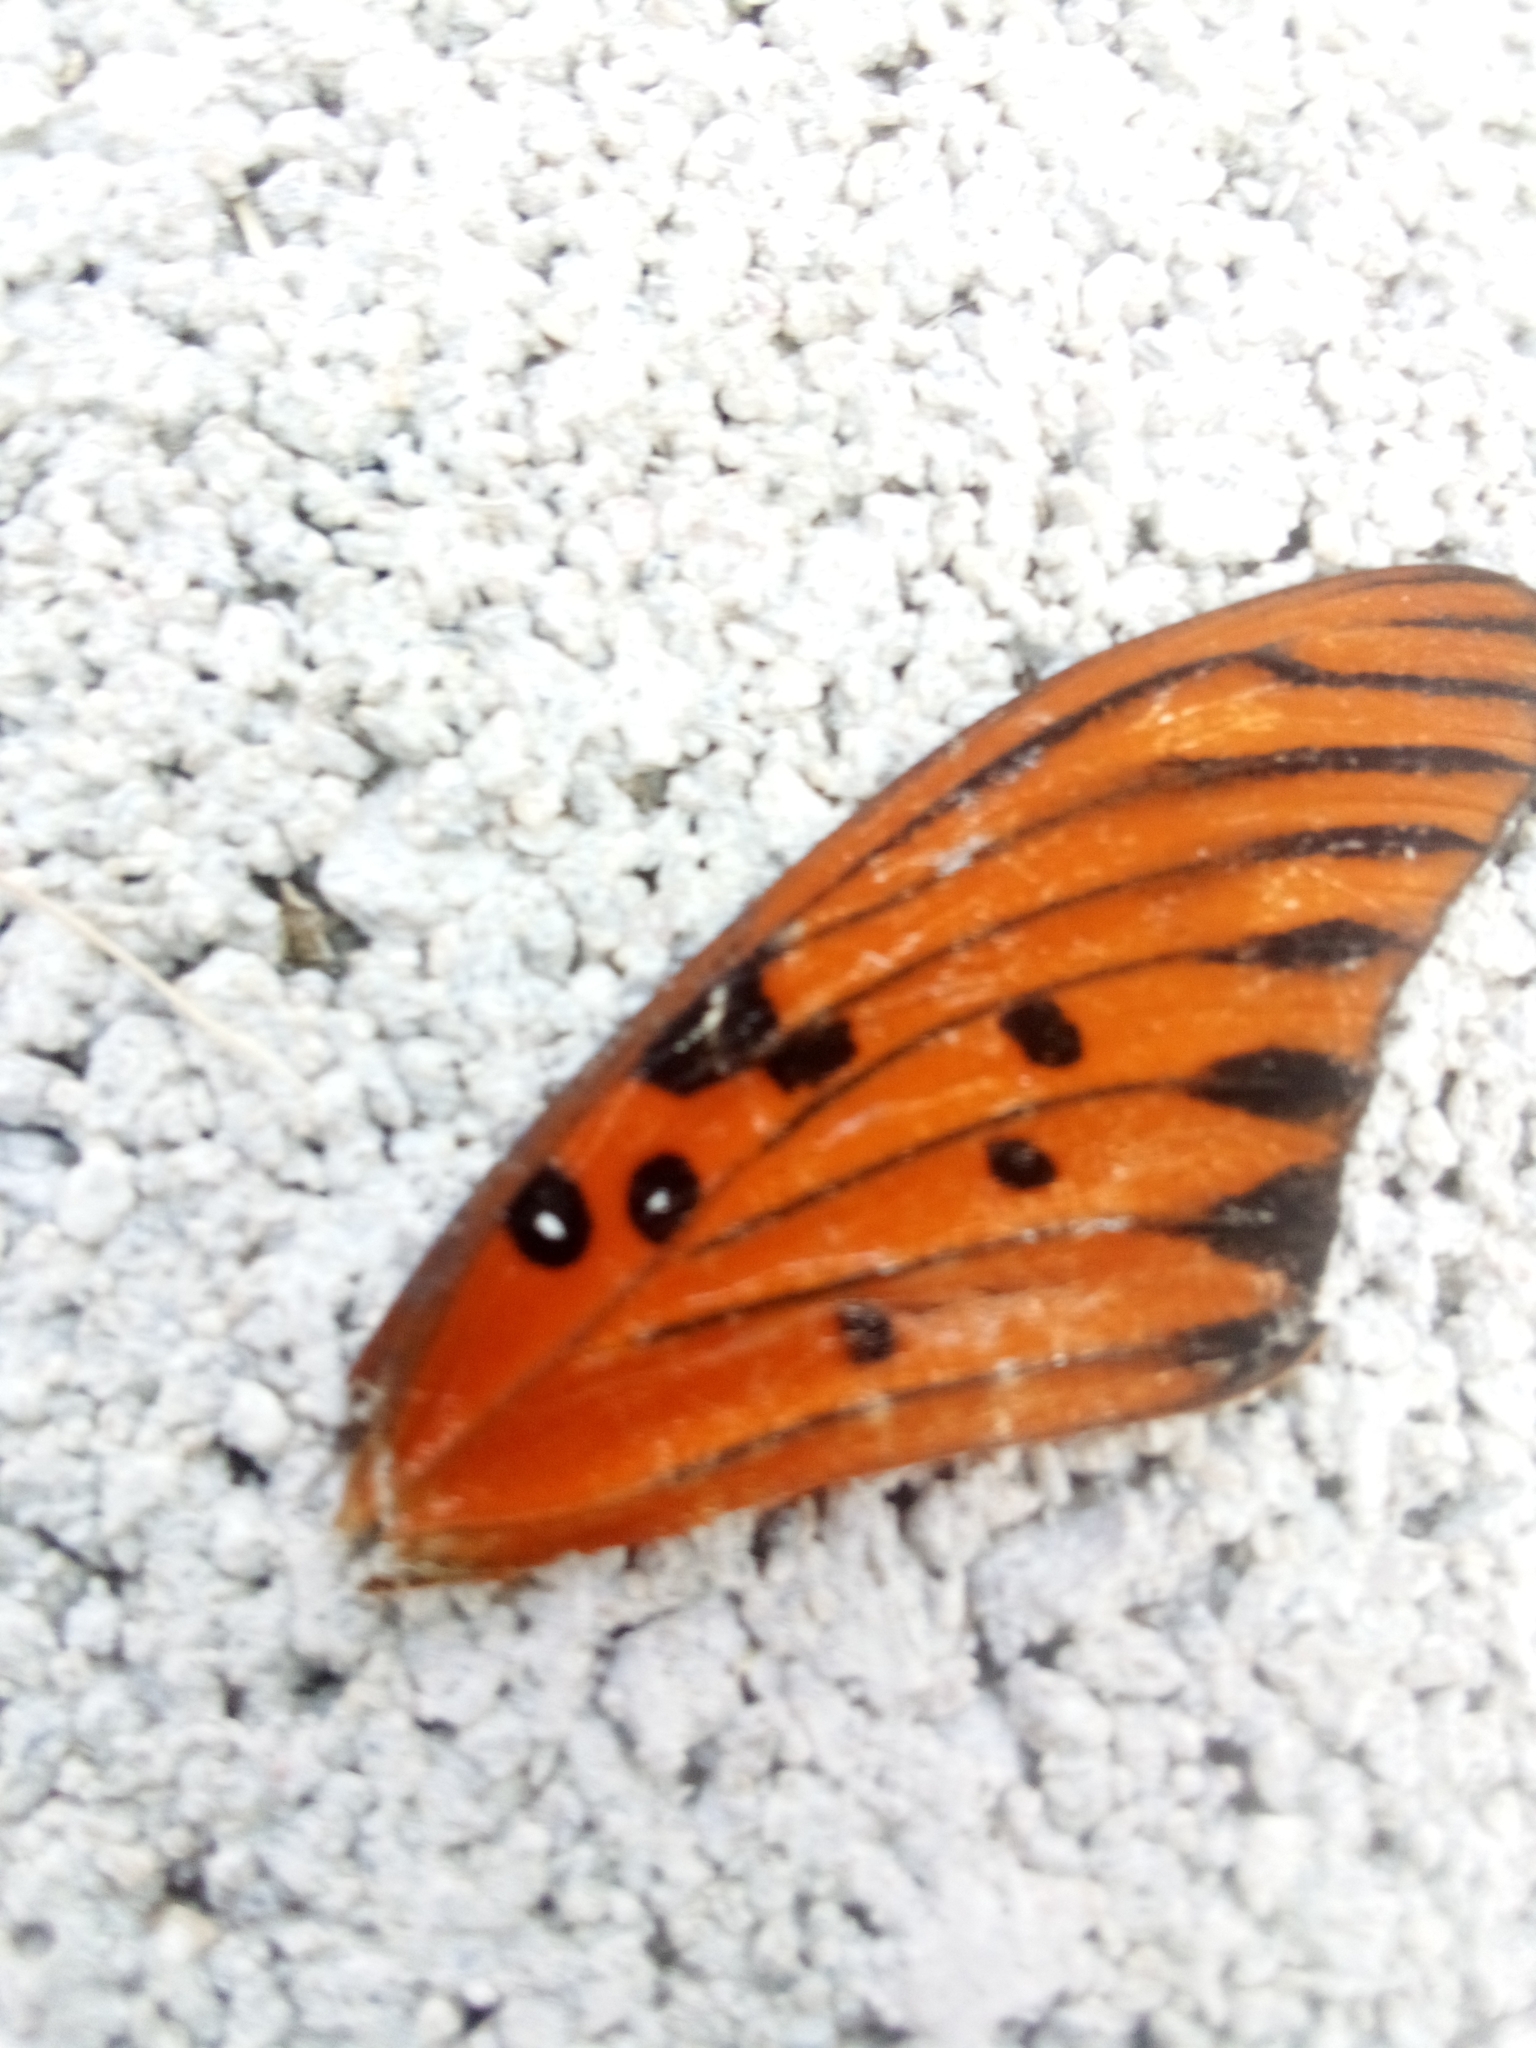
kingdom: Animalia
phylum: Arthropoda
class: Insecta
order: Lepidoptera
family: Nymphalidae
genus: Dione
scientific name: Dione vanillae
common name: Gulf fritillary
